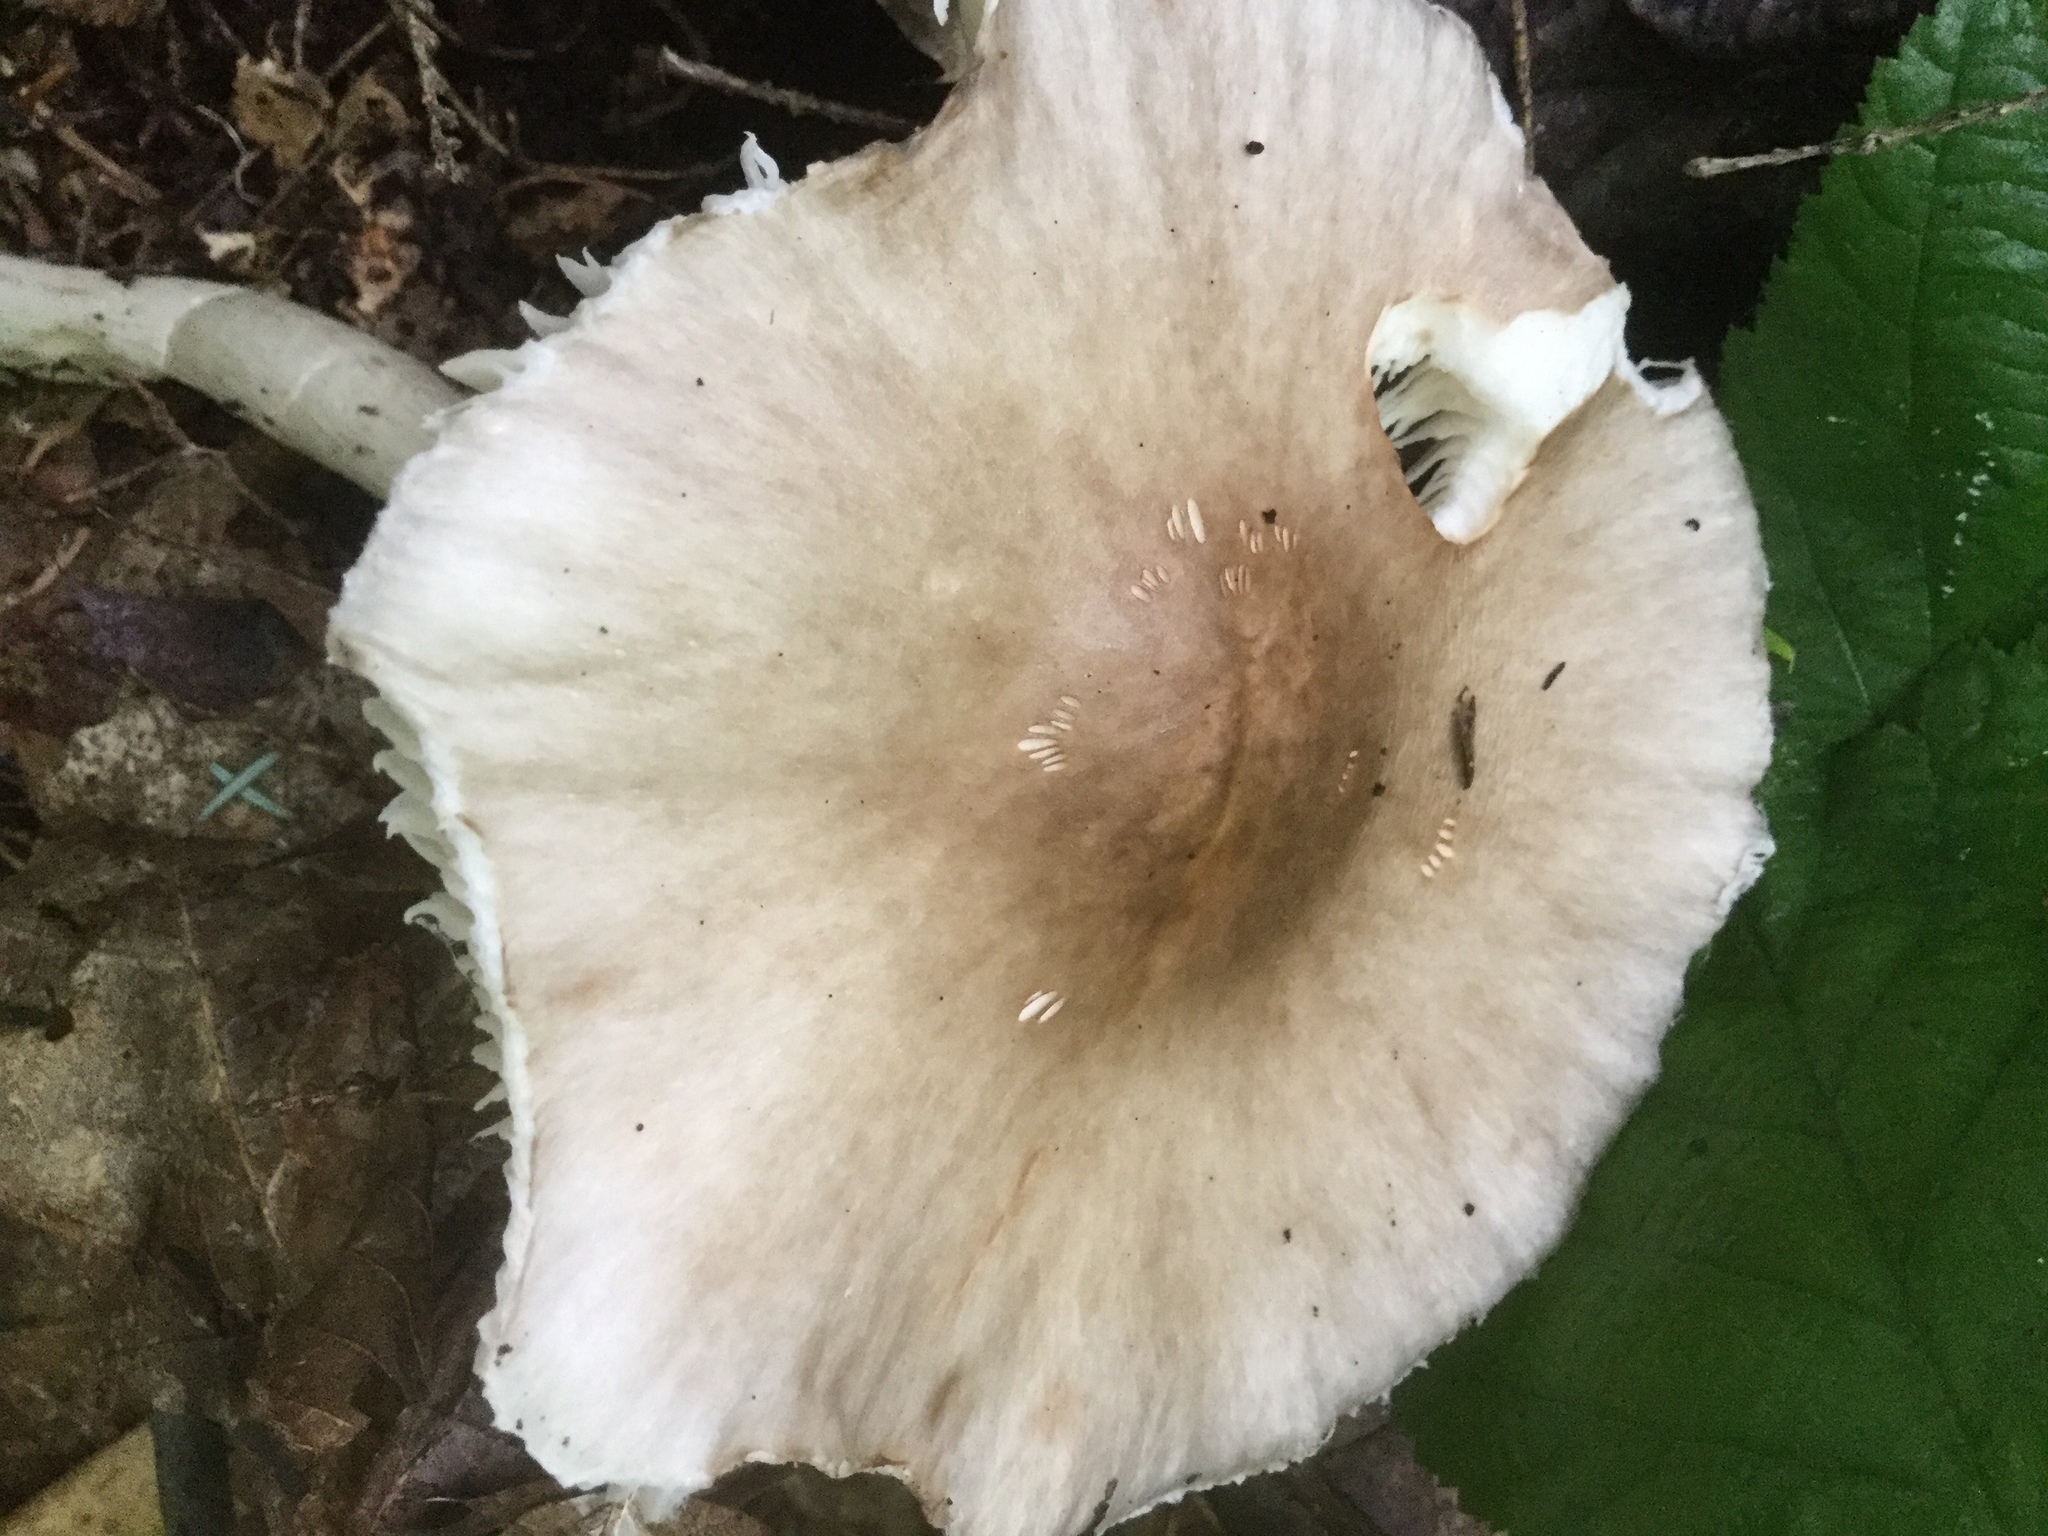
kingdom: Fungi
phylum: Basidiomycota
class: Agaricomycetes
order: Agaricales
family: Amanitaceae
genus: Amanita
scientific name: Amanita submaculata
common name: Ball gown amanita
